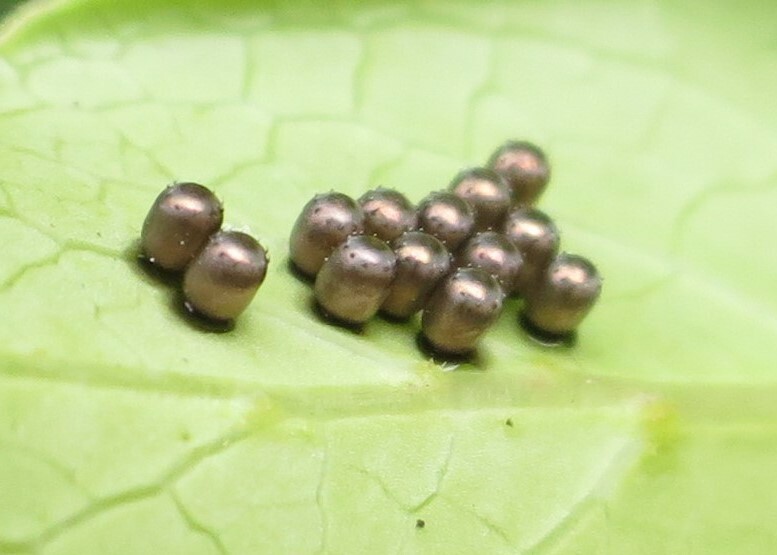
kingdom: Animalia
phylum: Arthropoda
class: Insecta
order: Hemiptera
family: Pentatomidae
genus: Cermatulus
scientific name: Cermatulus nasalis
